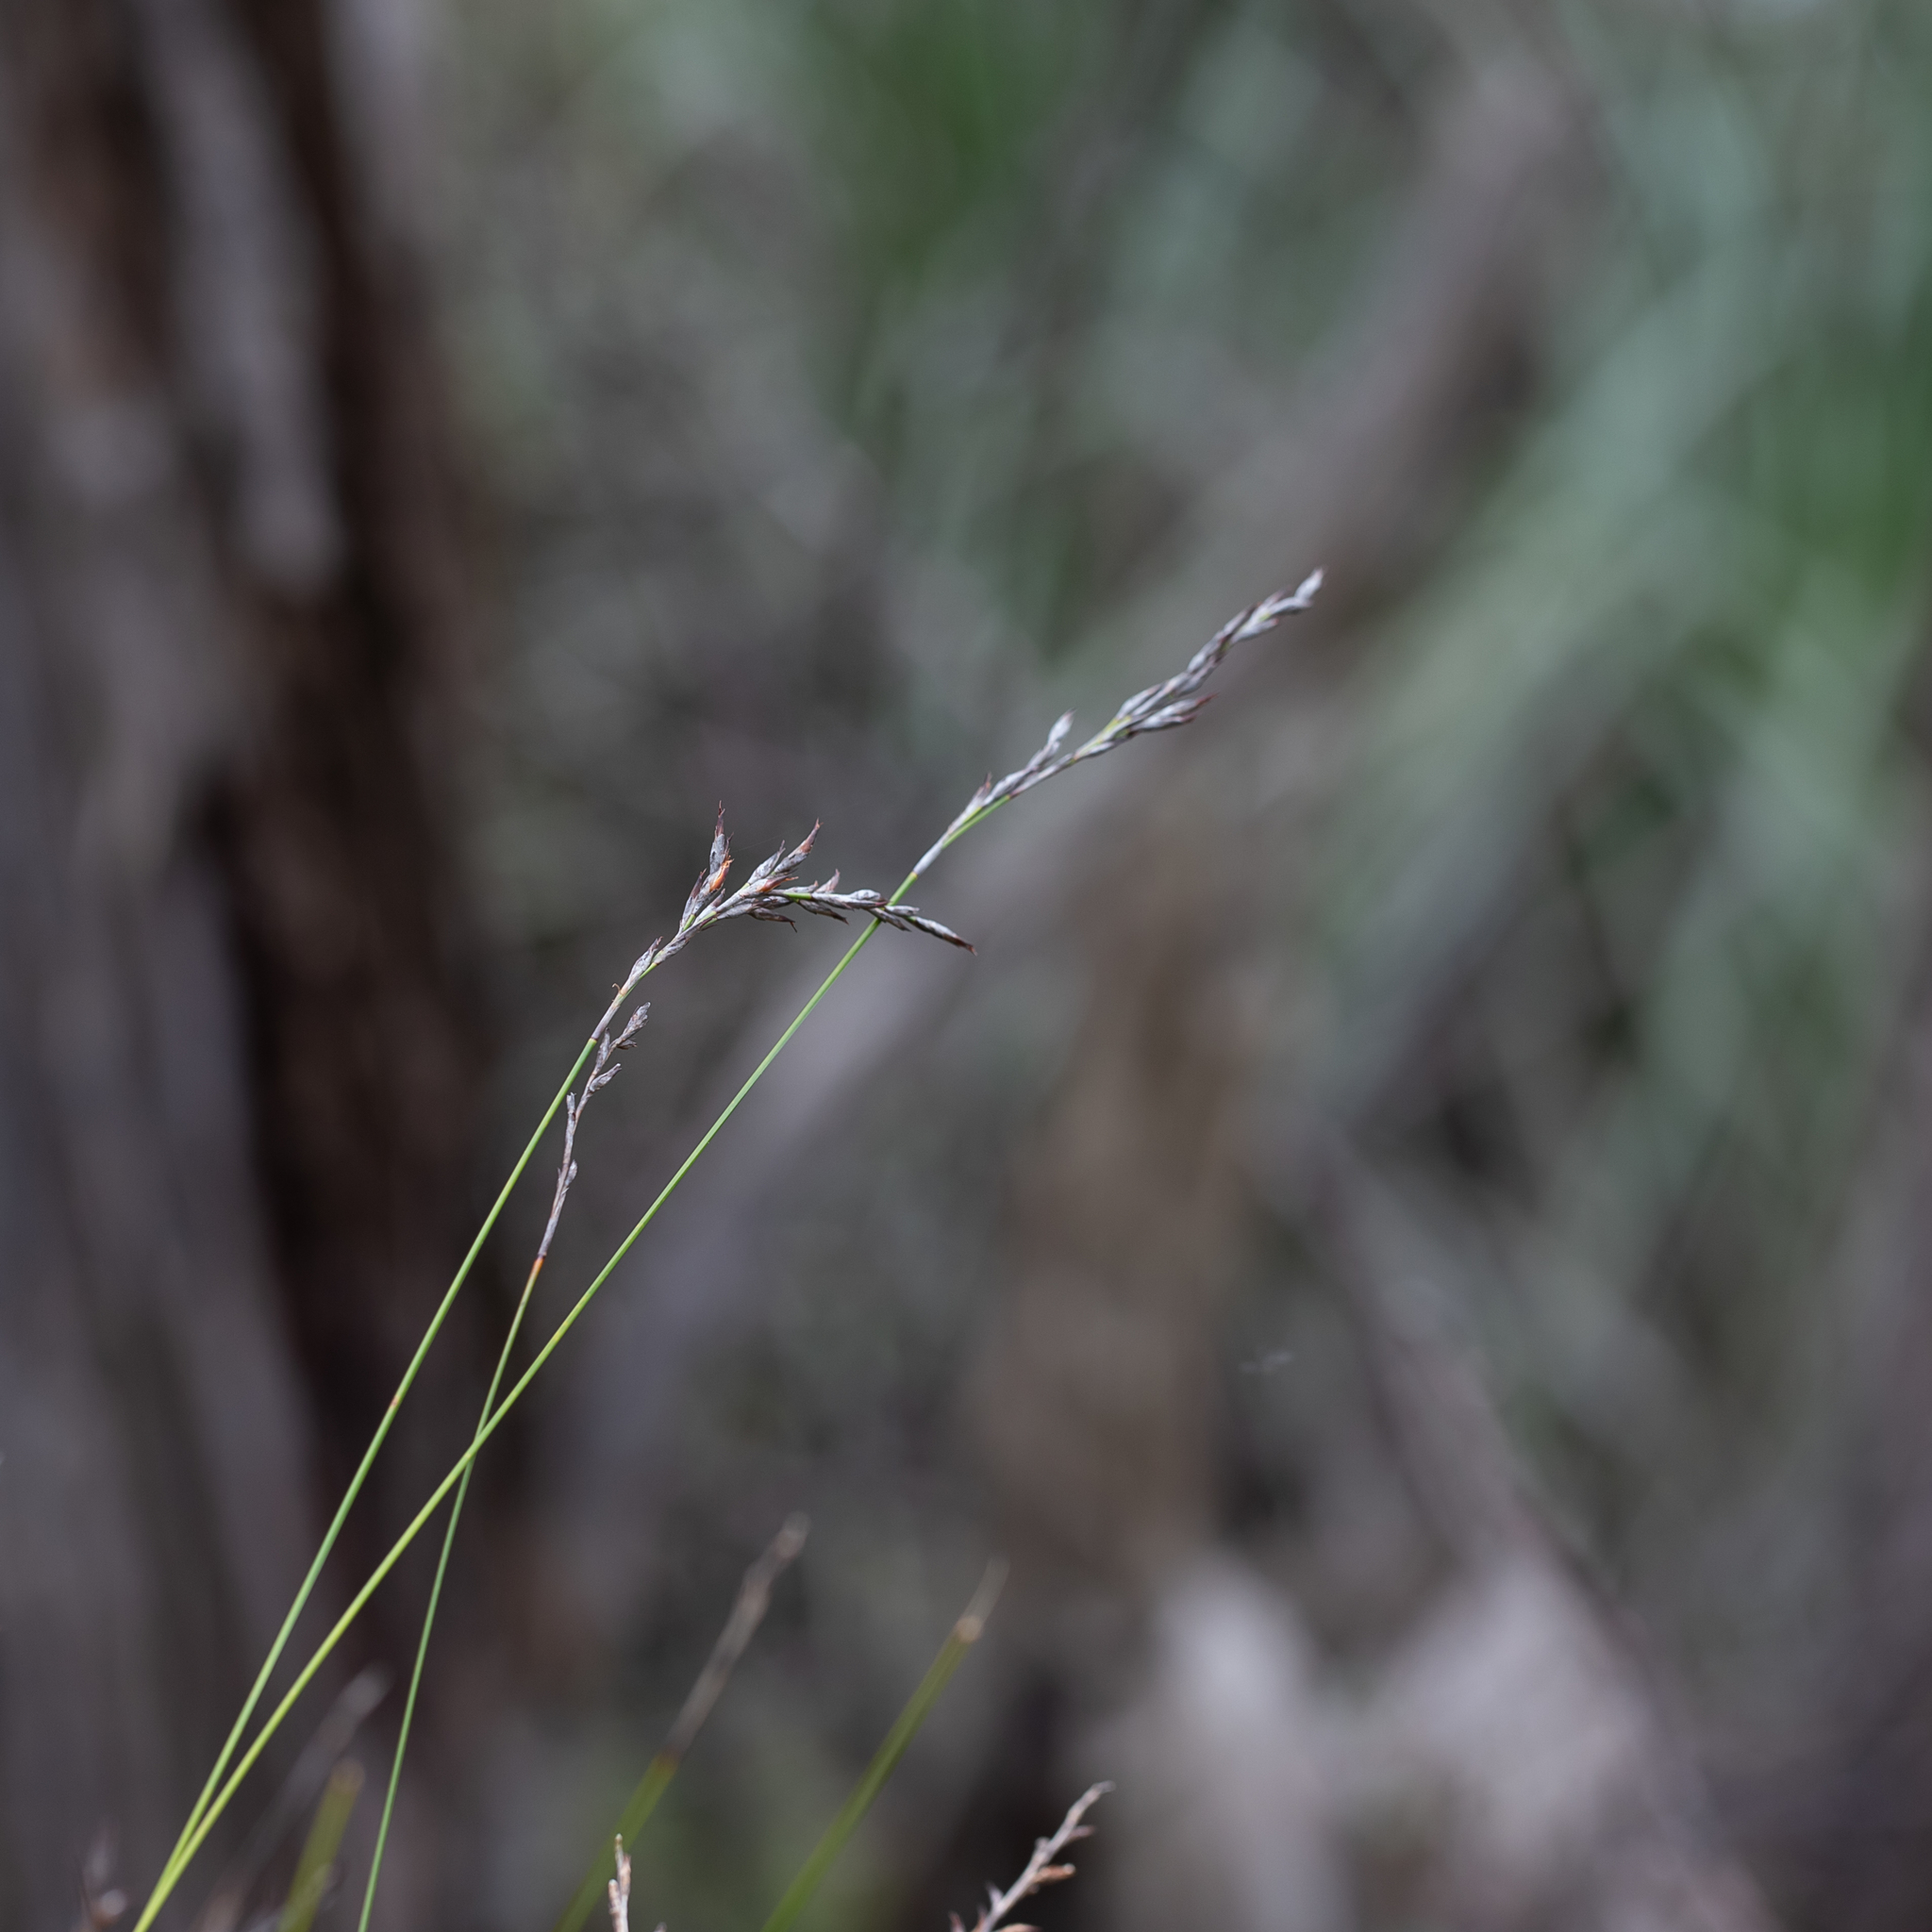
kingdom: Plantae
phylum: Tracheophyta
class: Liliopsida
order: Poales
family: Cyperaceae
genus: Lepidosperma
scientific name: Lepidosperma semiteres
